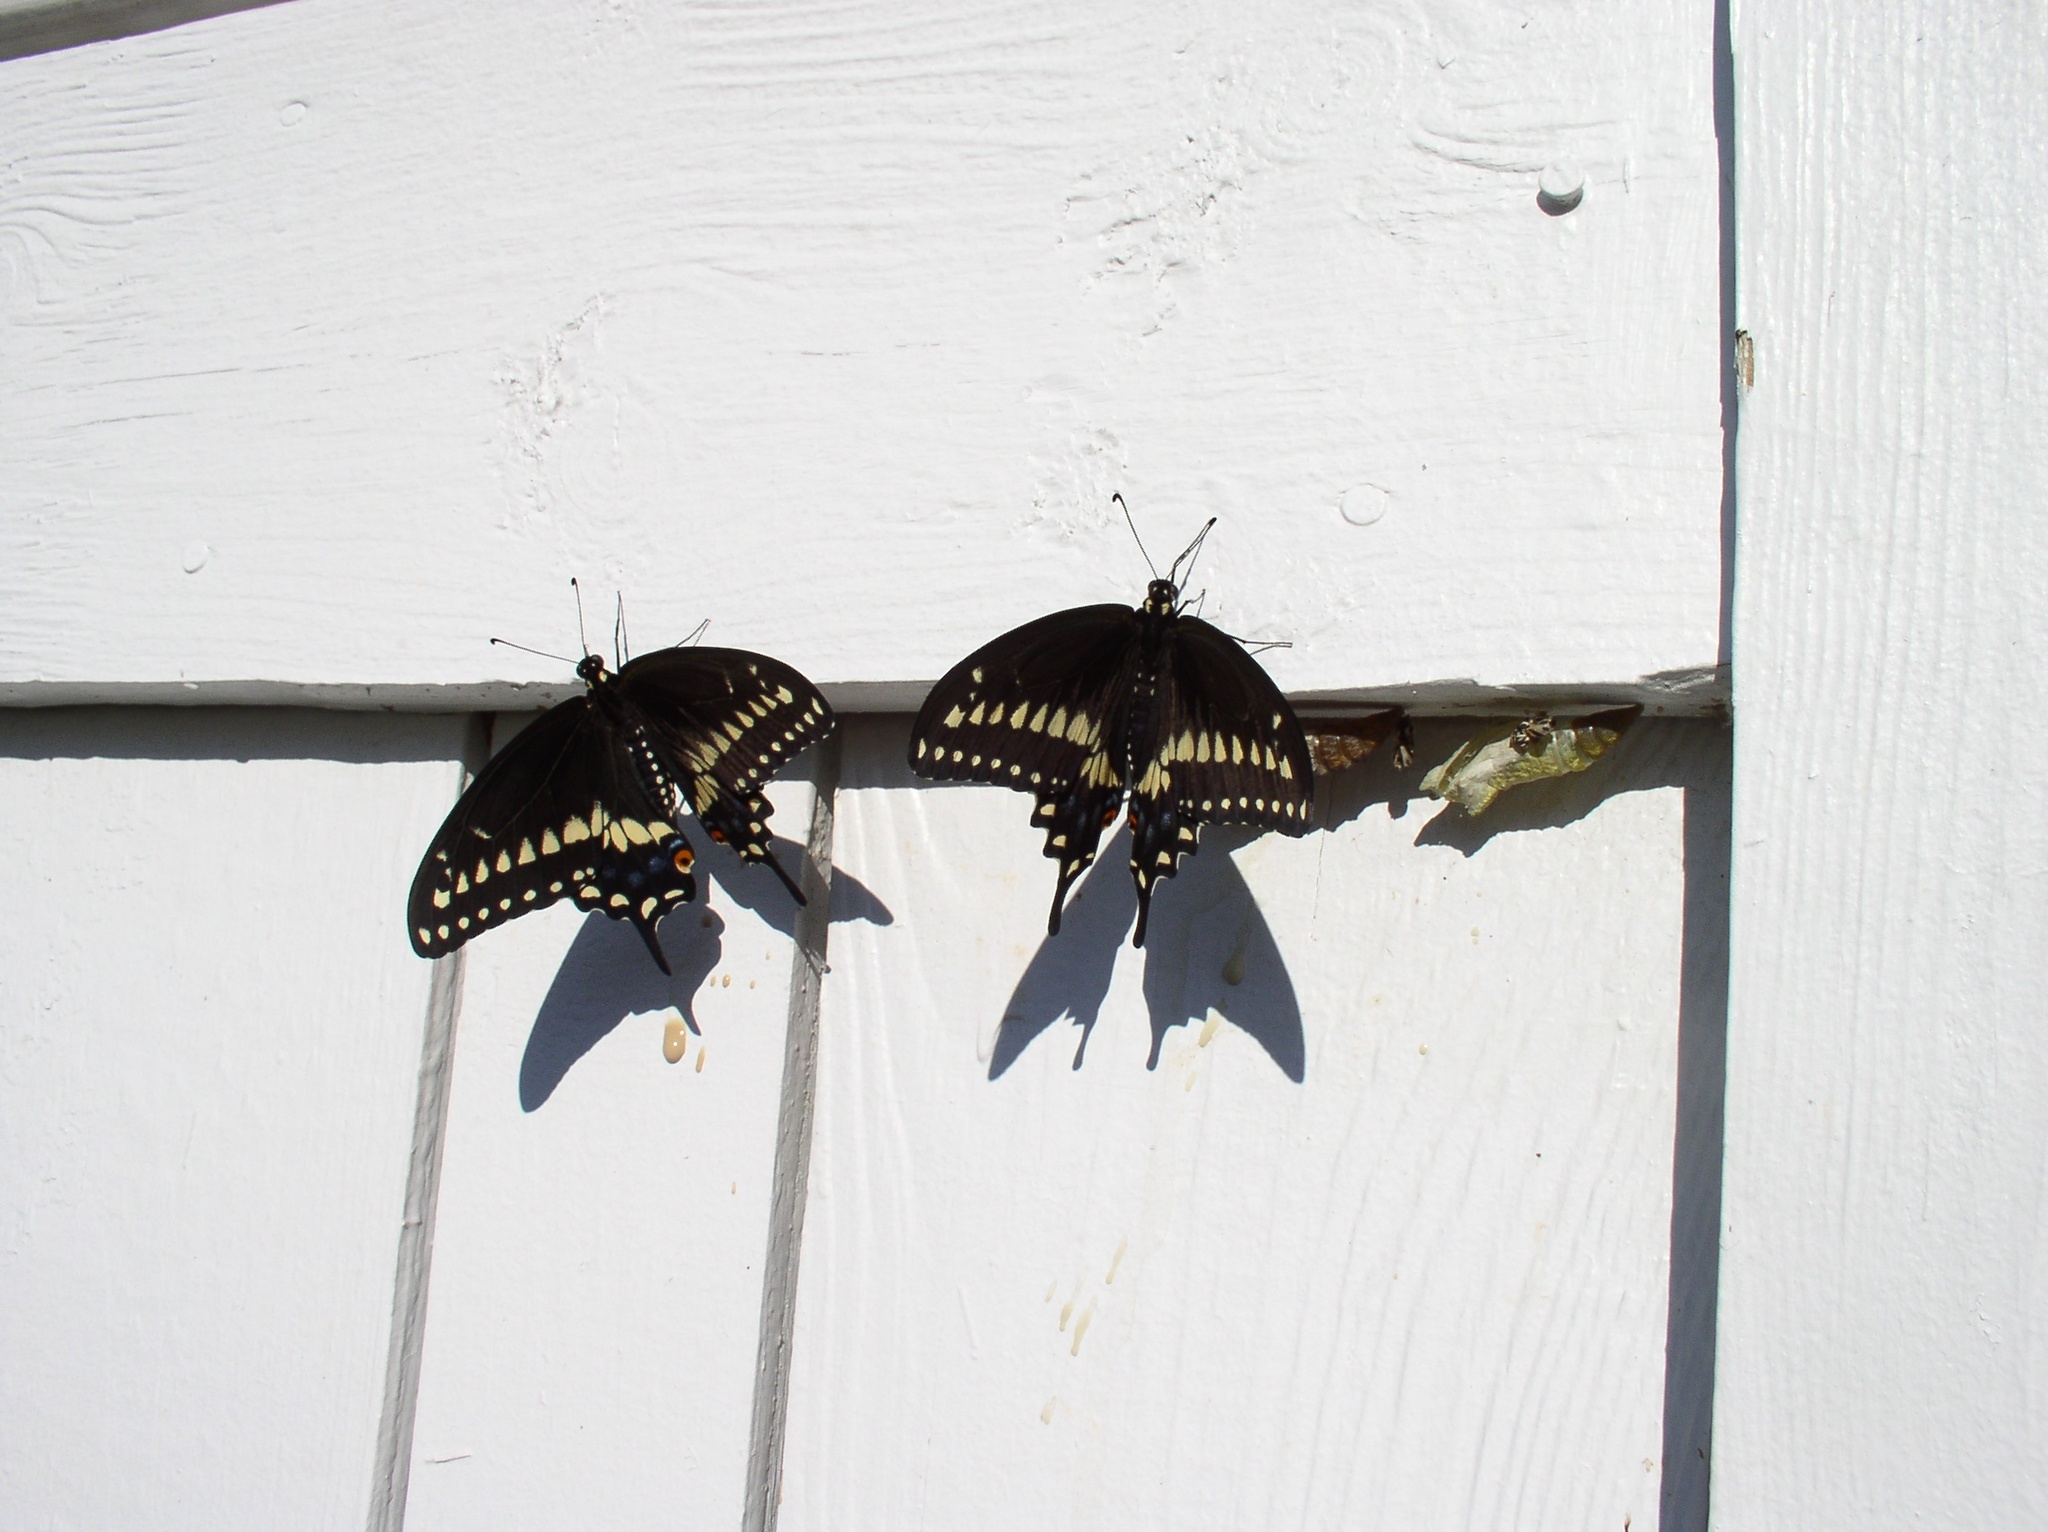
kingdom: Animalia
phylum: Arthropoda
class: Insecta
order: Lepidoptera
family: Papilionidae
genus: Papilio
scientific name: Papilio polyxenes
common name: Black swallowtail
